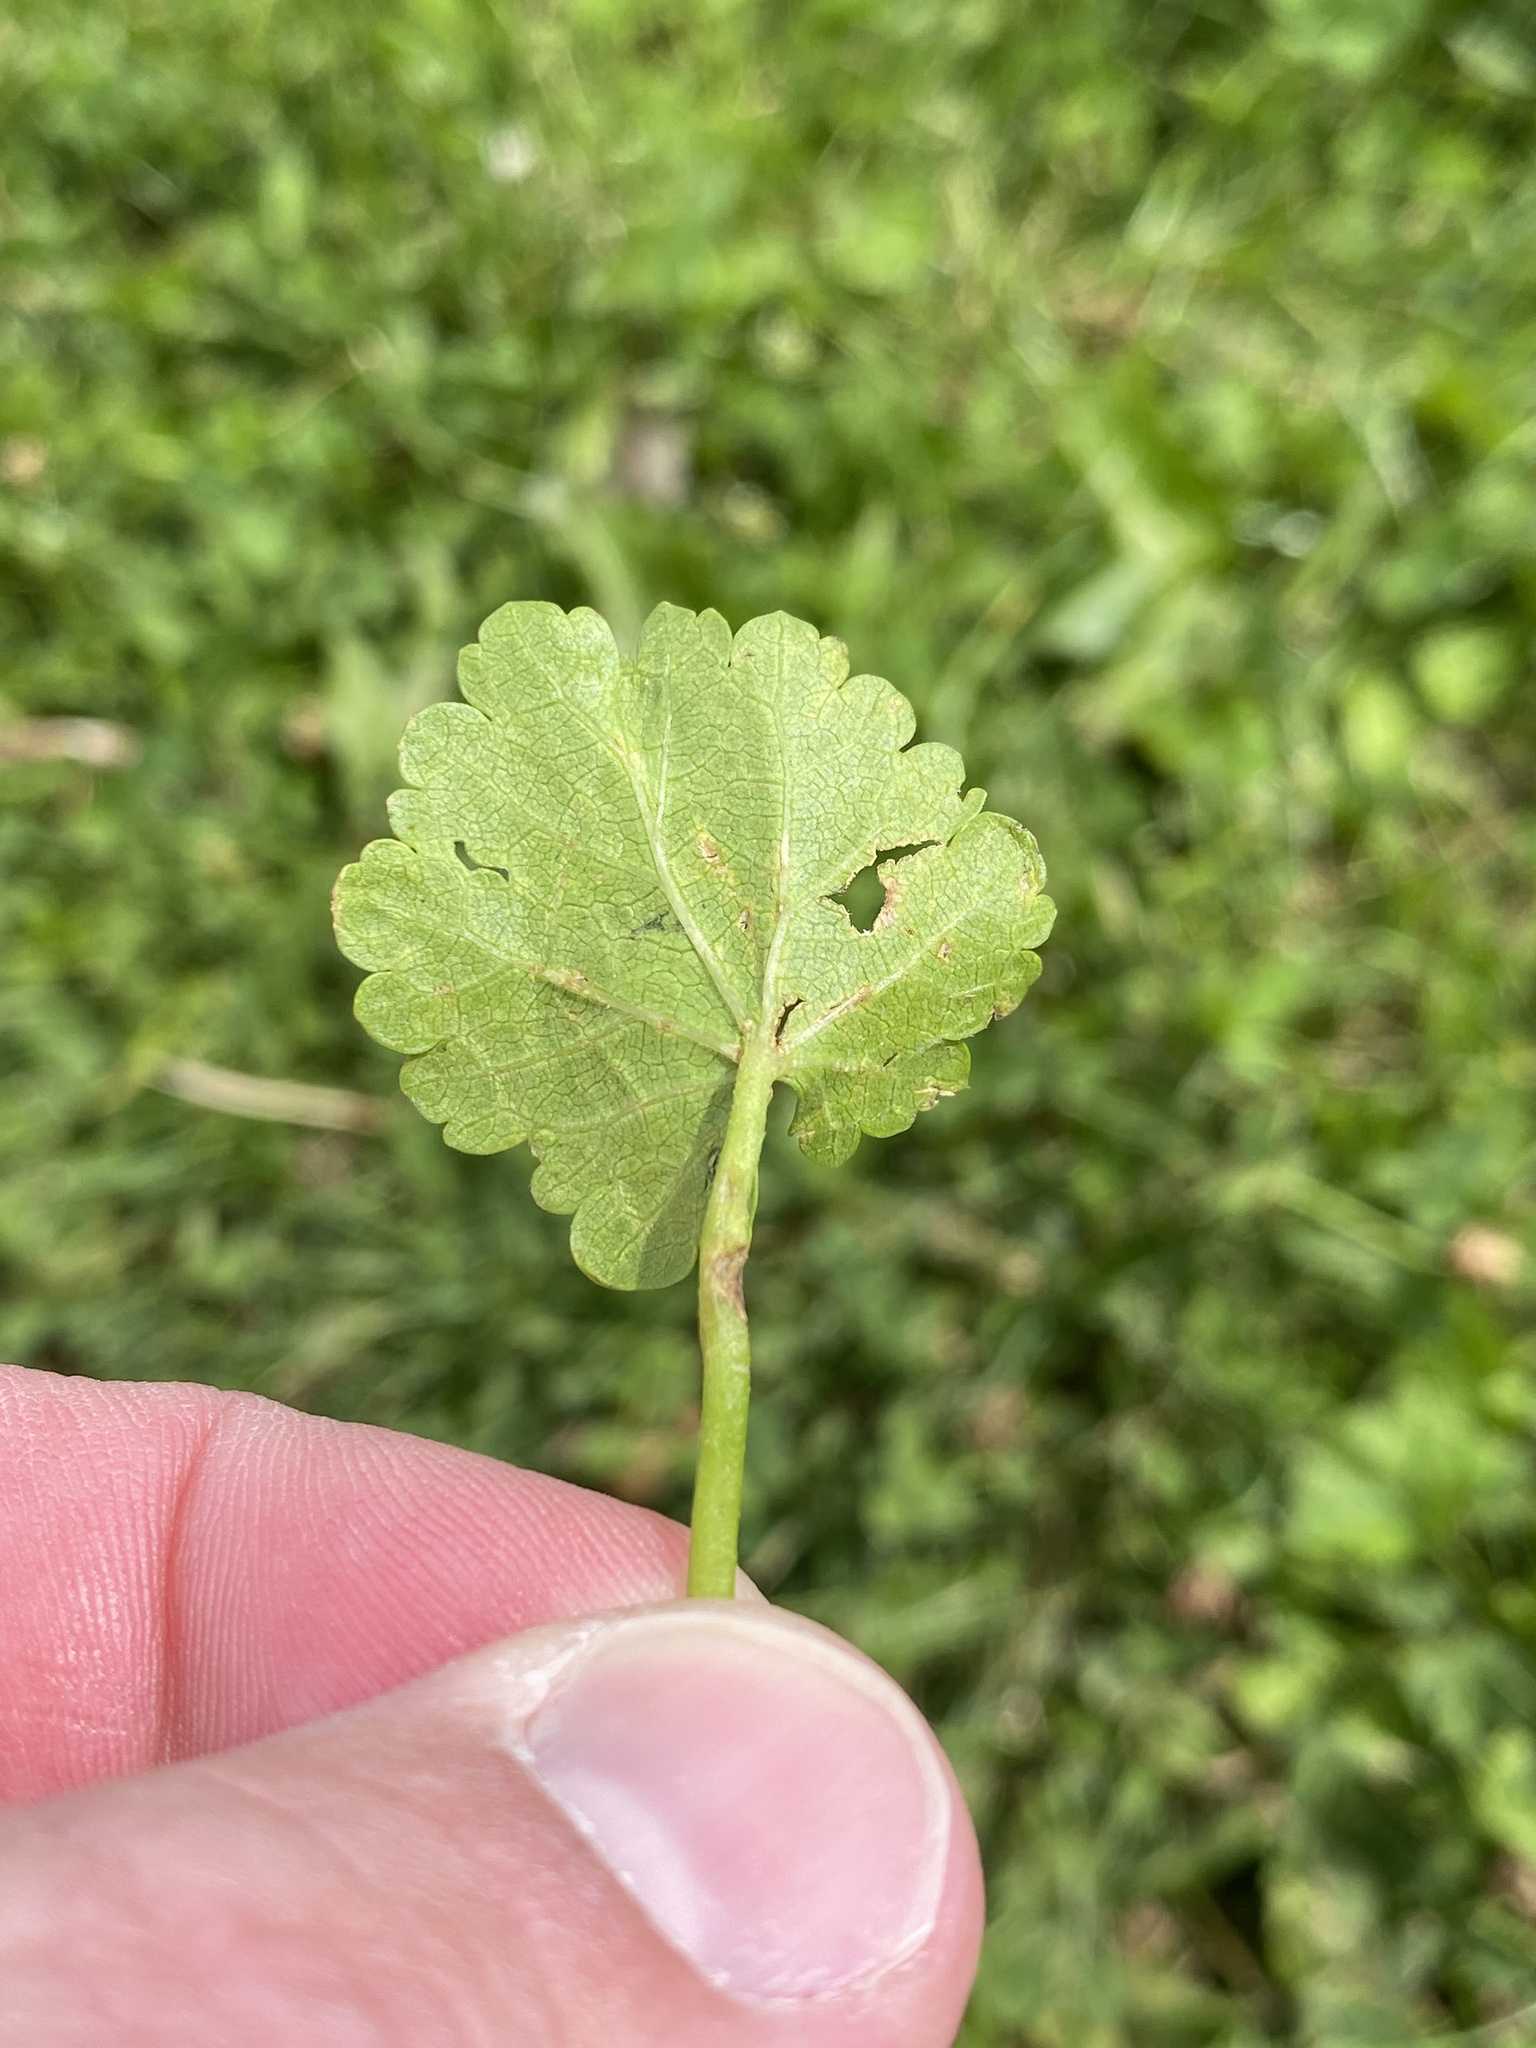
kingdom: Plantae
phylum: Tracheophyta
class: Magnoliopsida
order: Malvales
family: Malvaceae
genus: Modiola
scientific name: Modiola caroliniana
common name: Carolina bristlemallow
